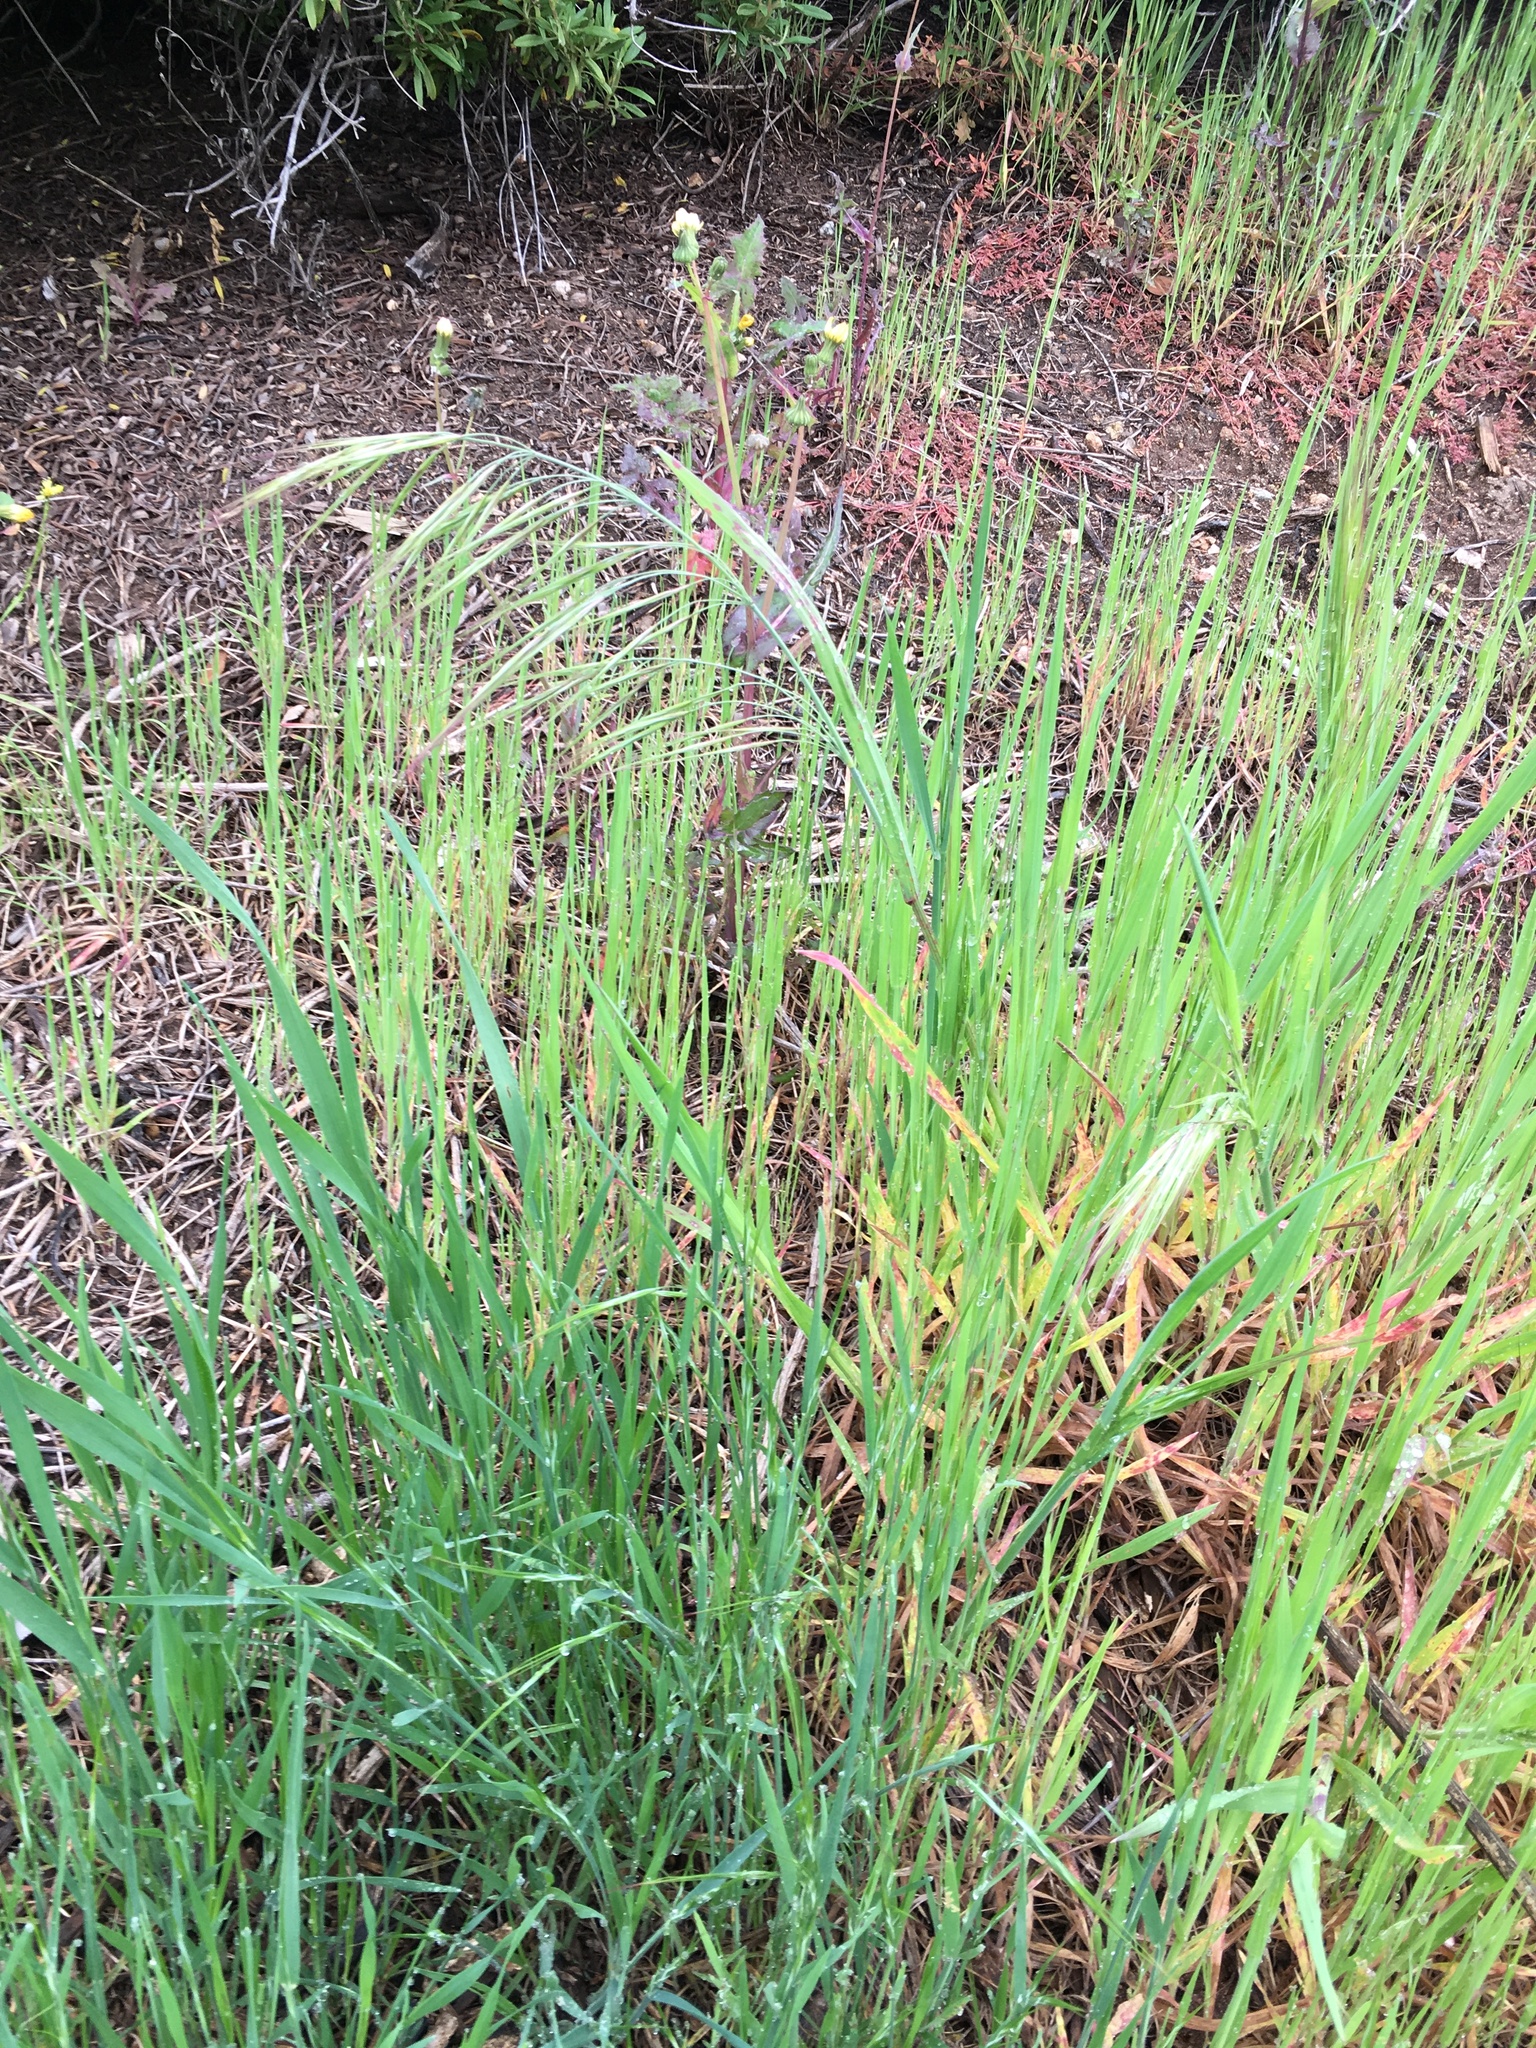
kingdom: Plantae
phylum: Tracheophyta
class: Liliopsida
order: Poales
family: Poaceae
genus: Bromus
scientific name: Bromus diandrus
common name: Ripgut brome
